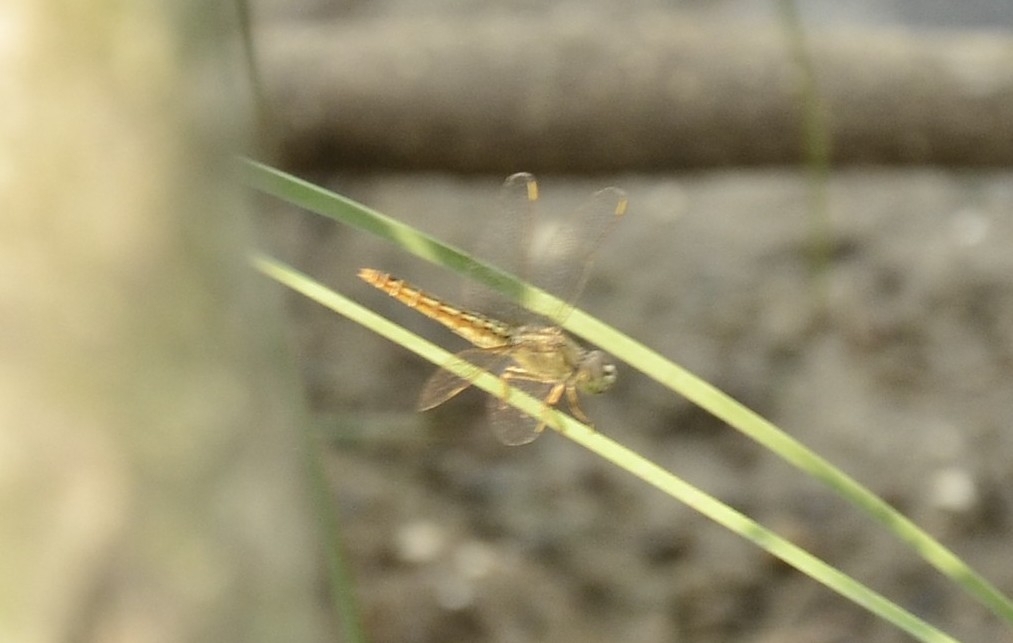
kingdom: Animalia
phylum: Arthropoda
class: Insecta
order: Odonata
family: Libellulidae
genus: Brachythemis
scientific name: Brachythemis contaminata
